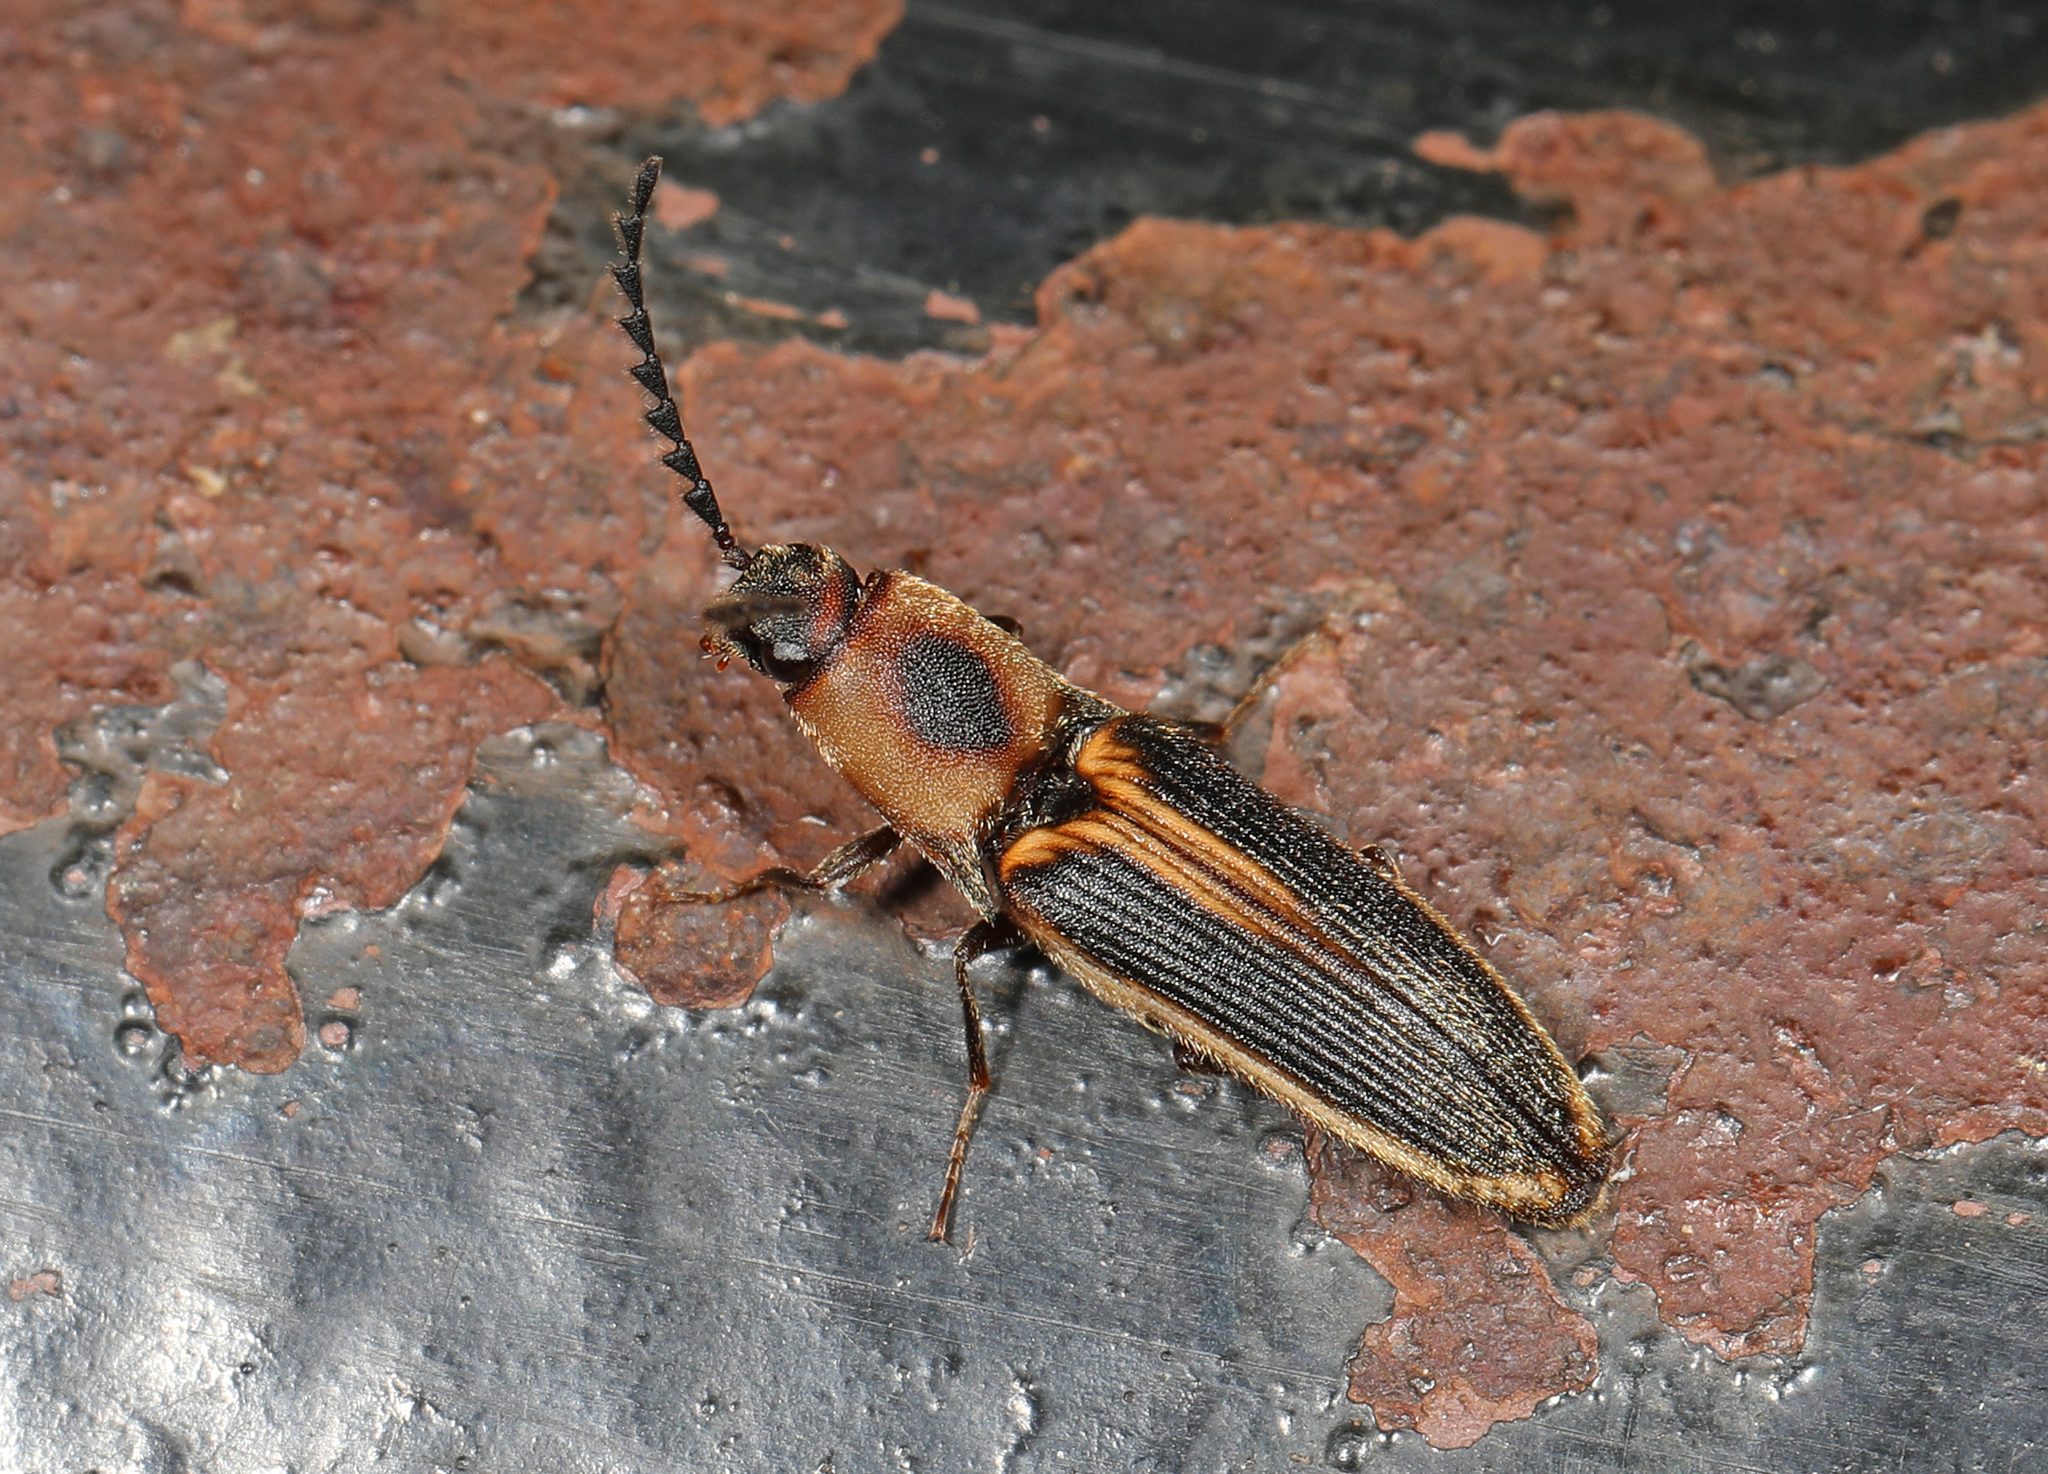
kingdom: Animalia
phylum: Arthropoda
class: Insecta
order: Coleoptera
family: Elateridae
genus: Megapenthes
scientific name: Megapenthes
